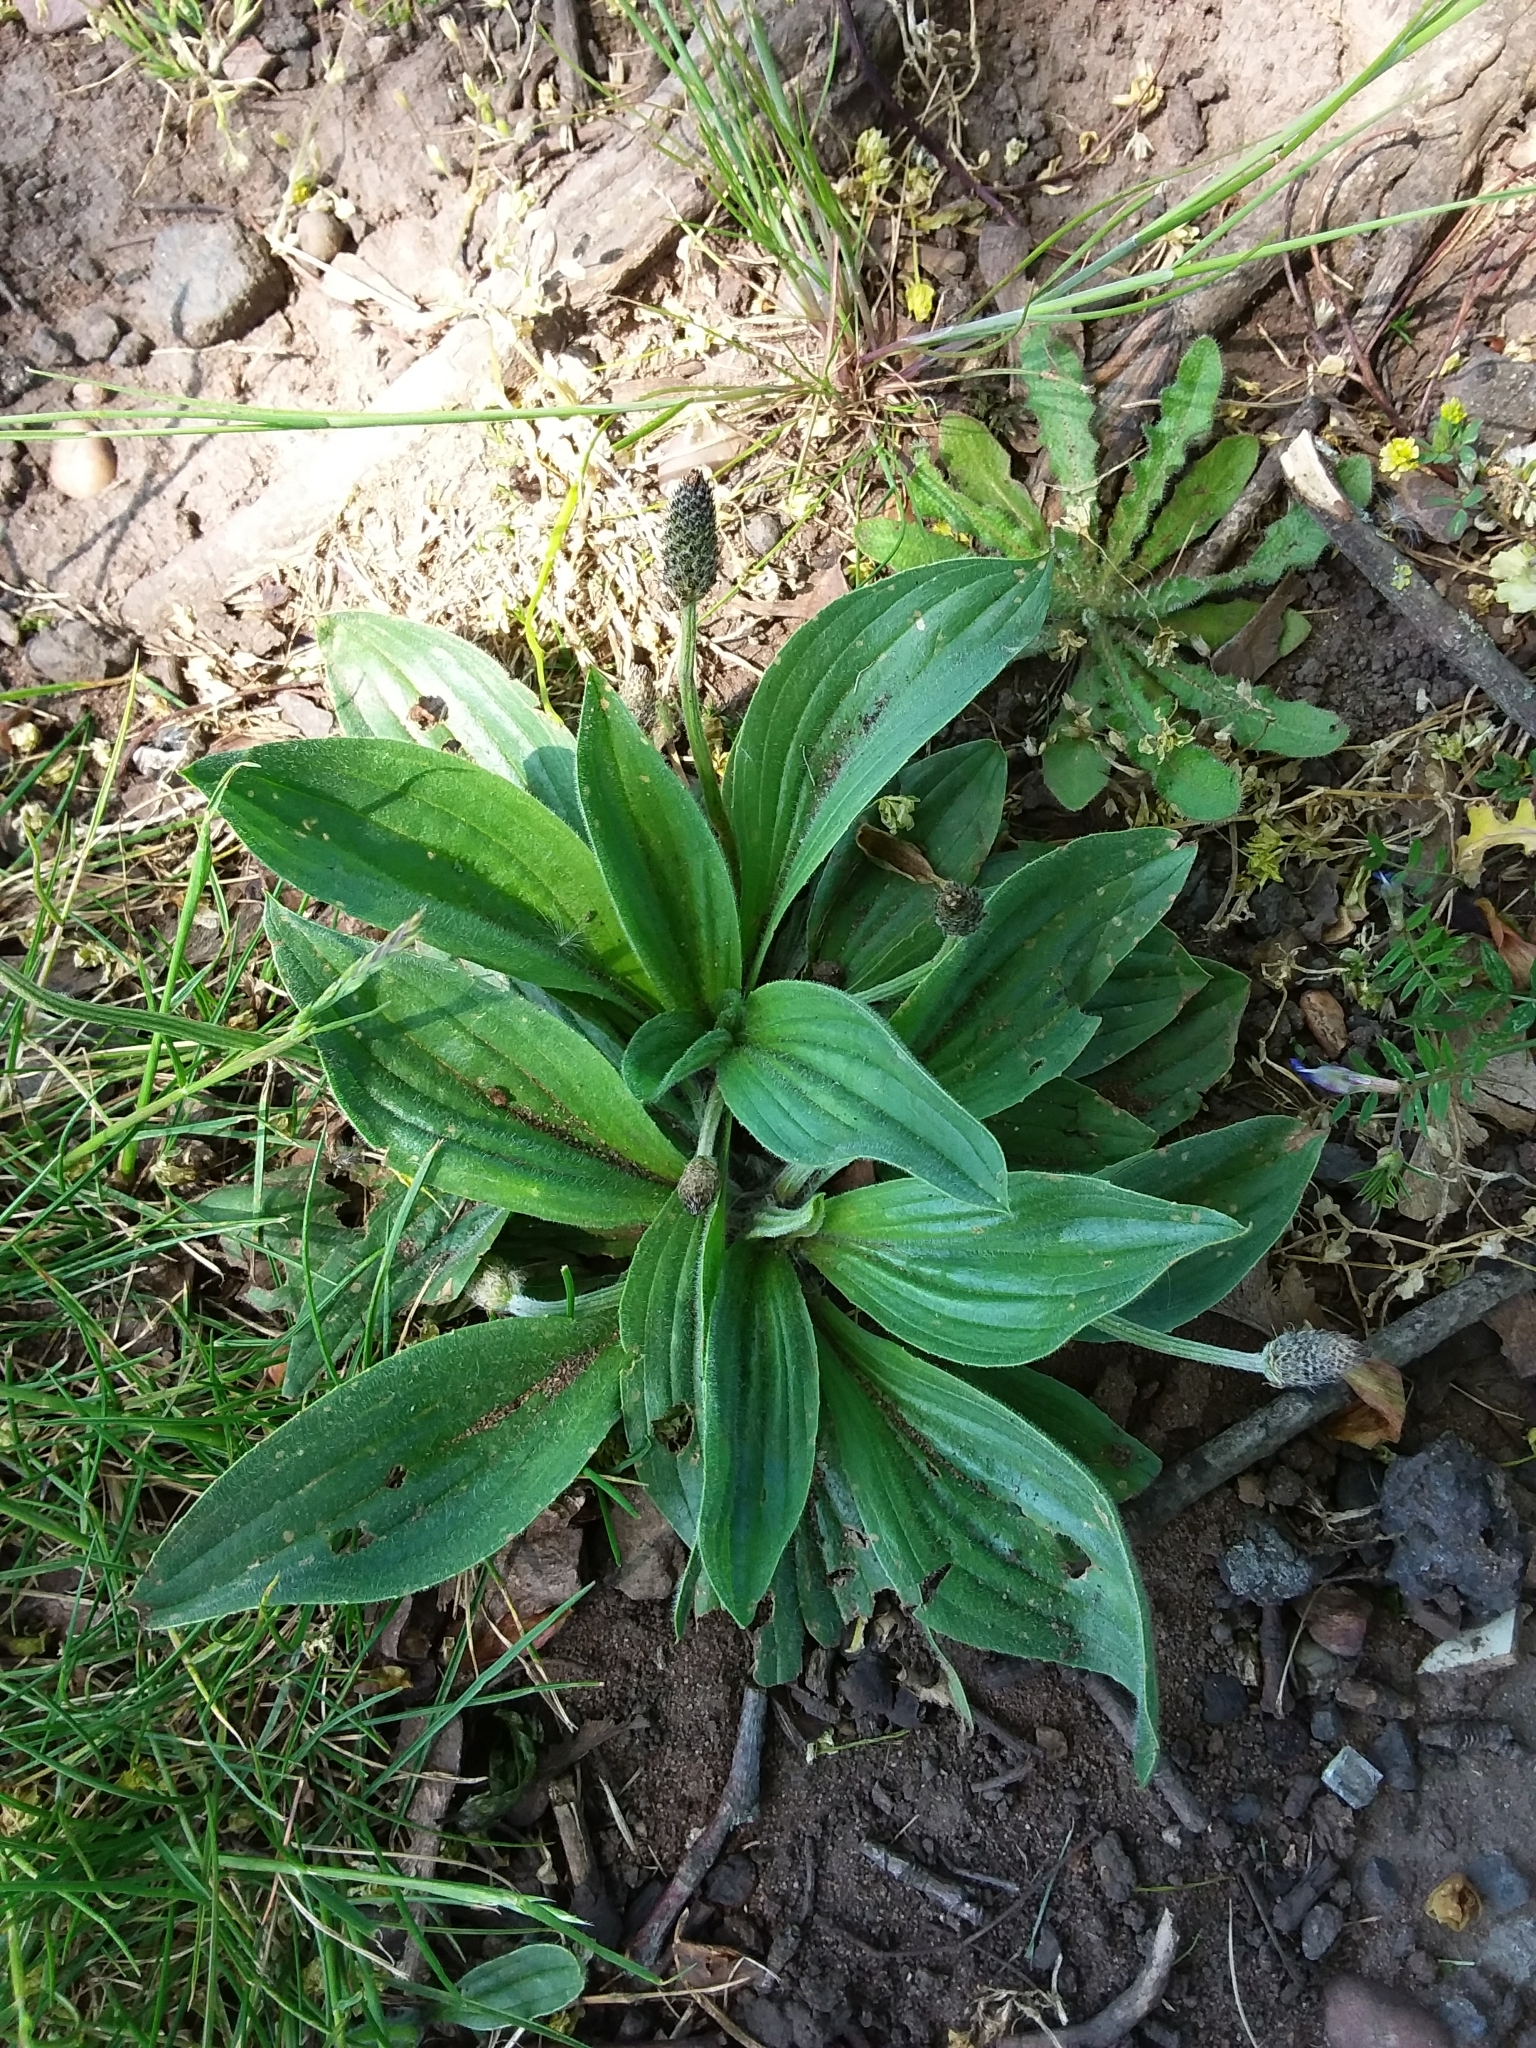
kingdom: Plantae
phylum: Tracheophyta
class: Magnoliopsida
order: Lamiales
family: Plantaginaceae
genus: Plantago
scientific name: Plantago lanceolata
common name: Ribwort plantain
